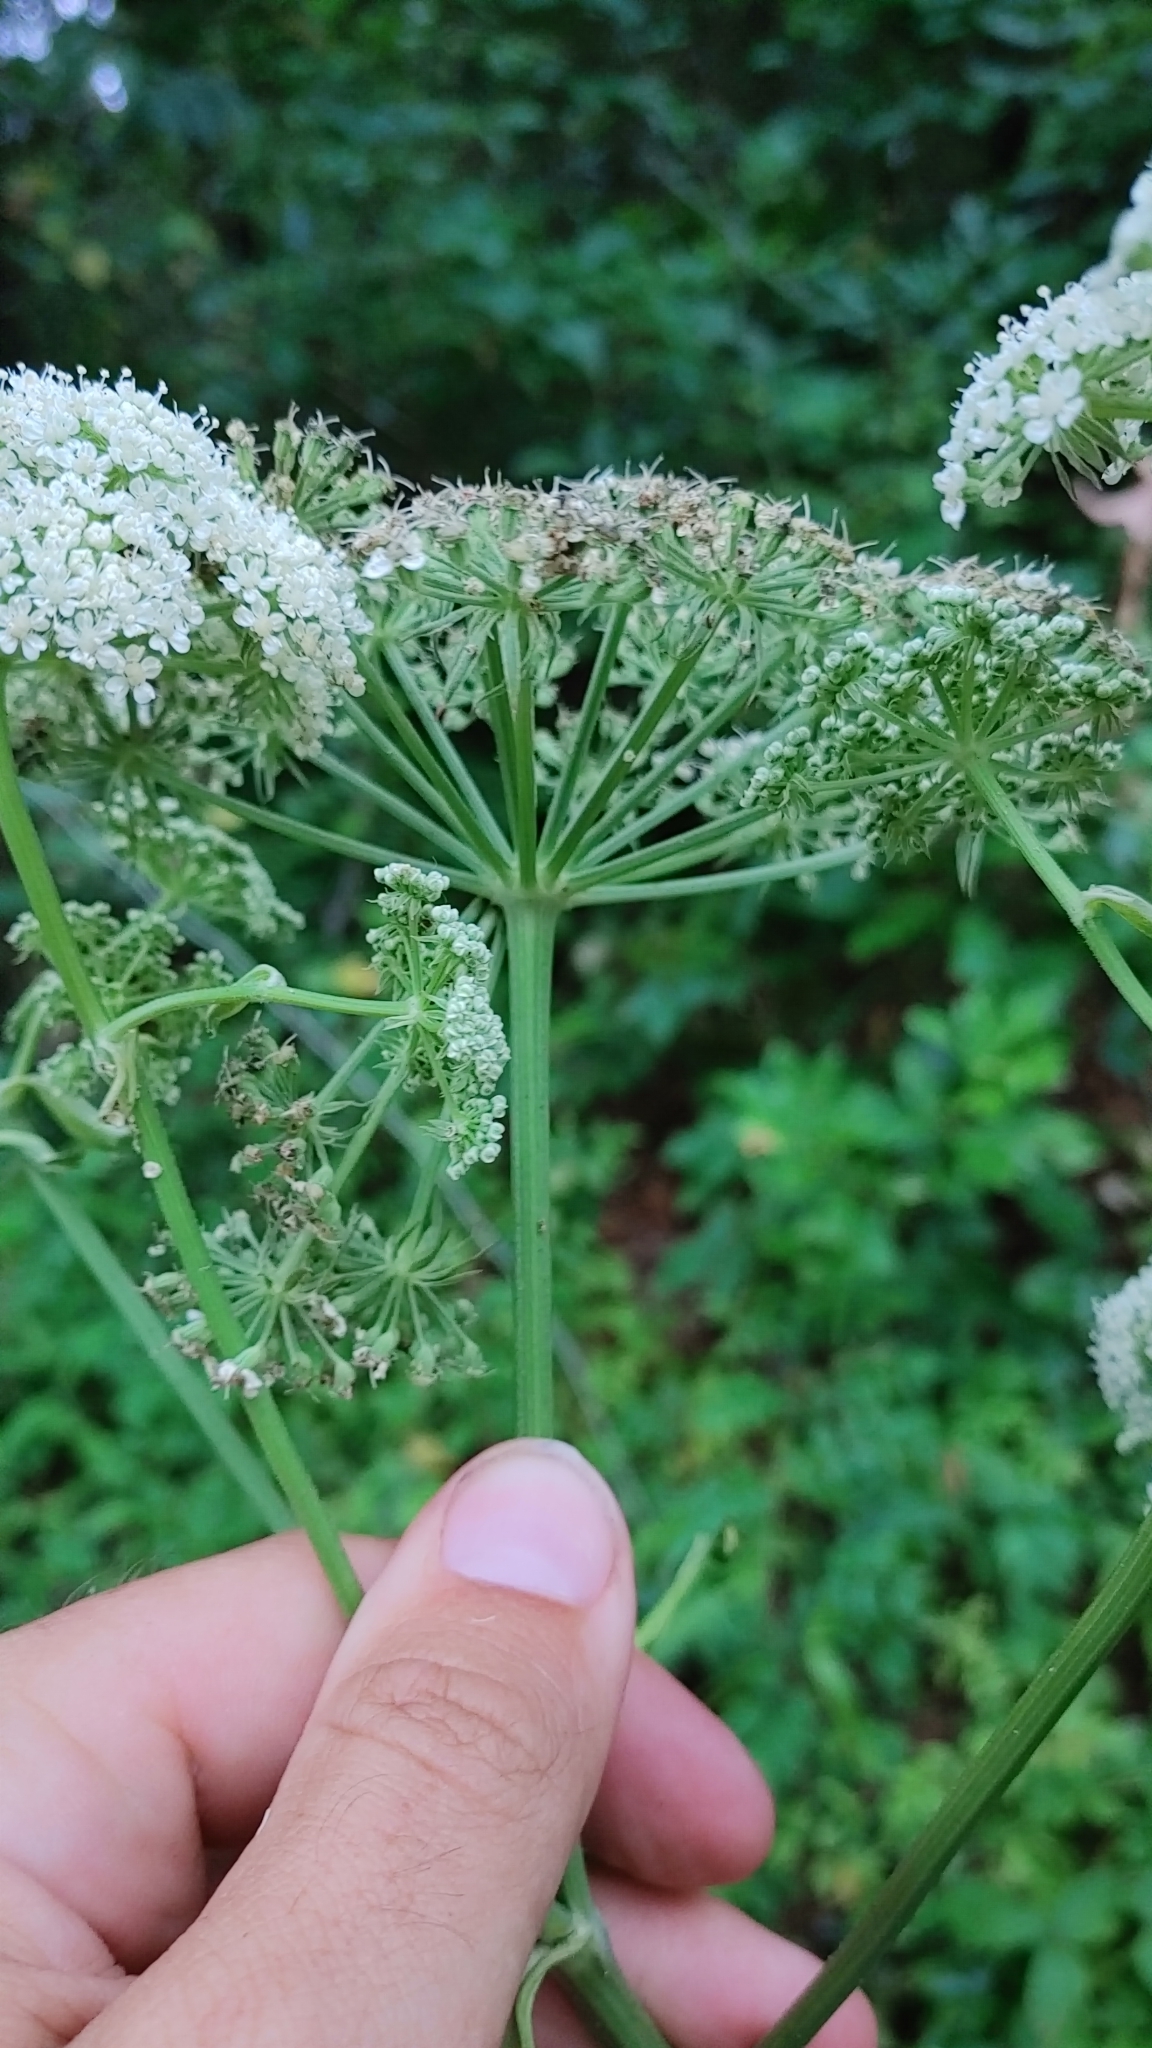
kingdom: Plantae
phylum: Tracheophyta
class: Magnoliopsida
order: Apiales
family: Apiaceae
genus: Angelica
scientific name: Angelica venenosa
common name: Hairy angelica
